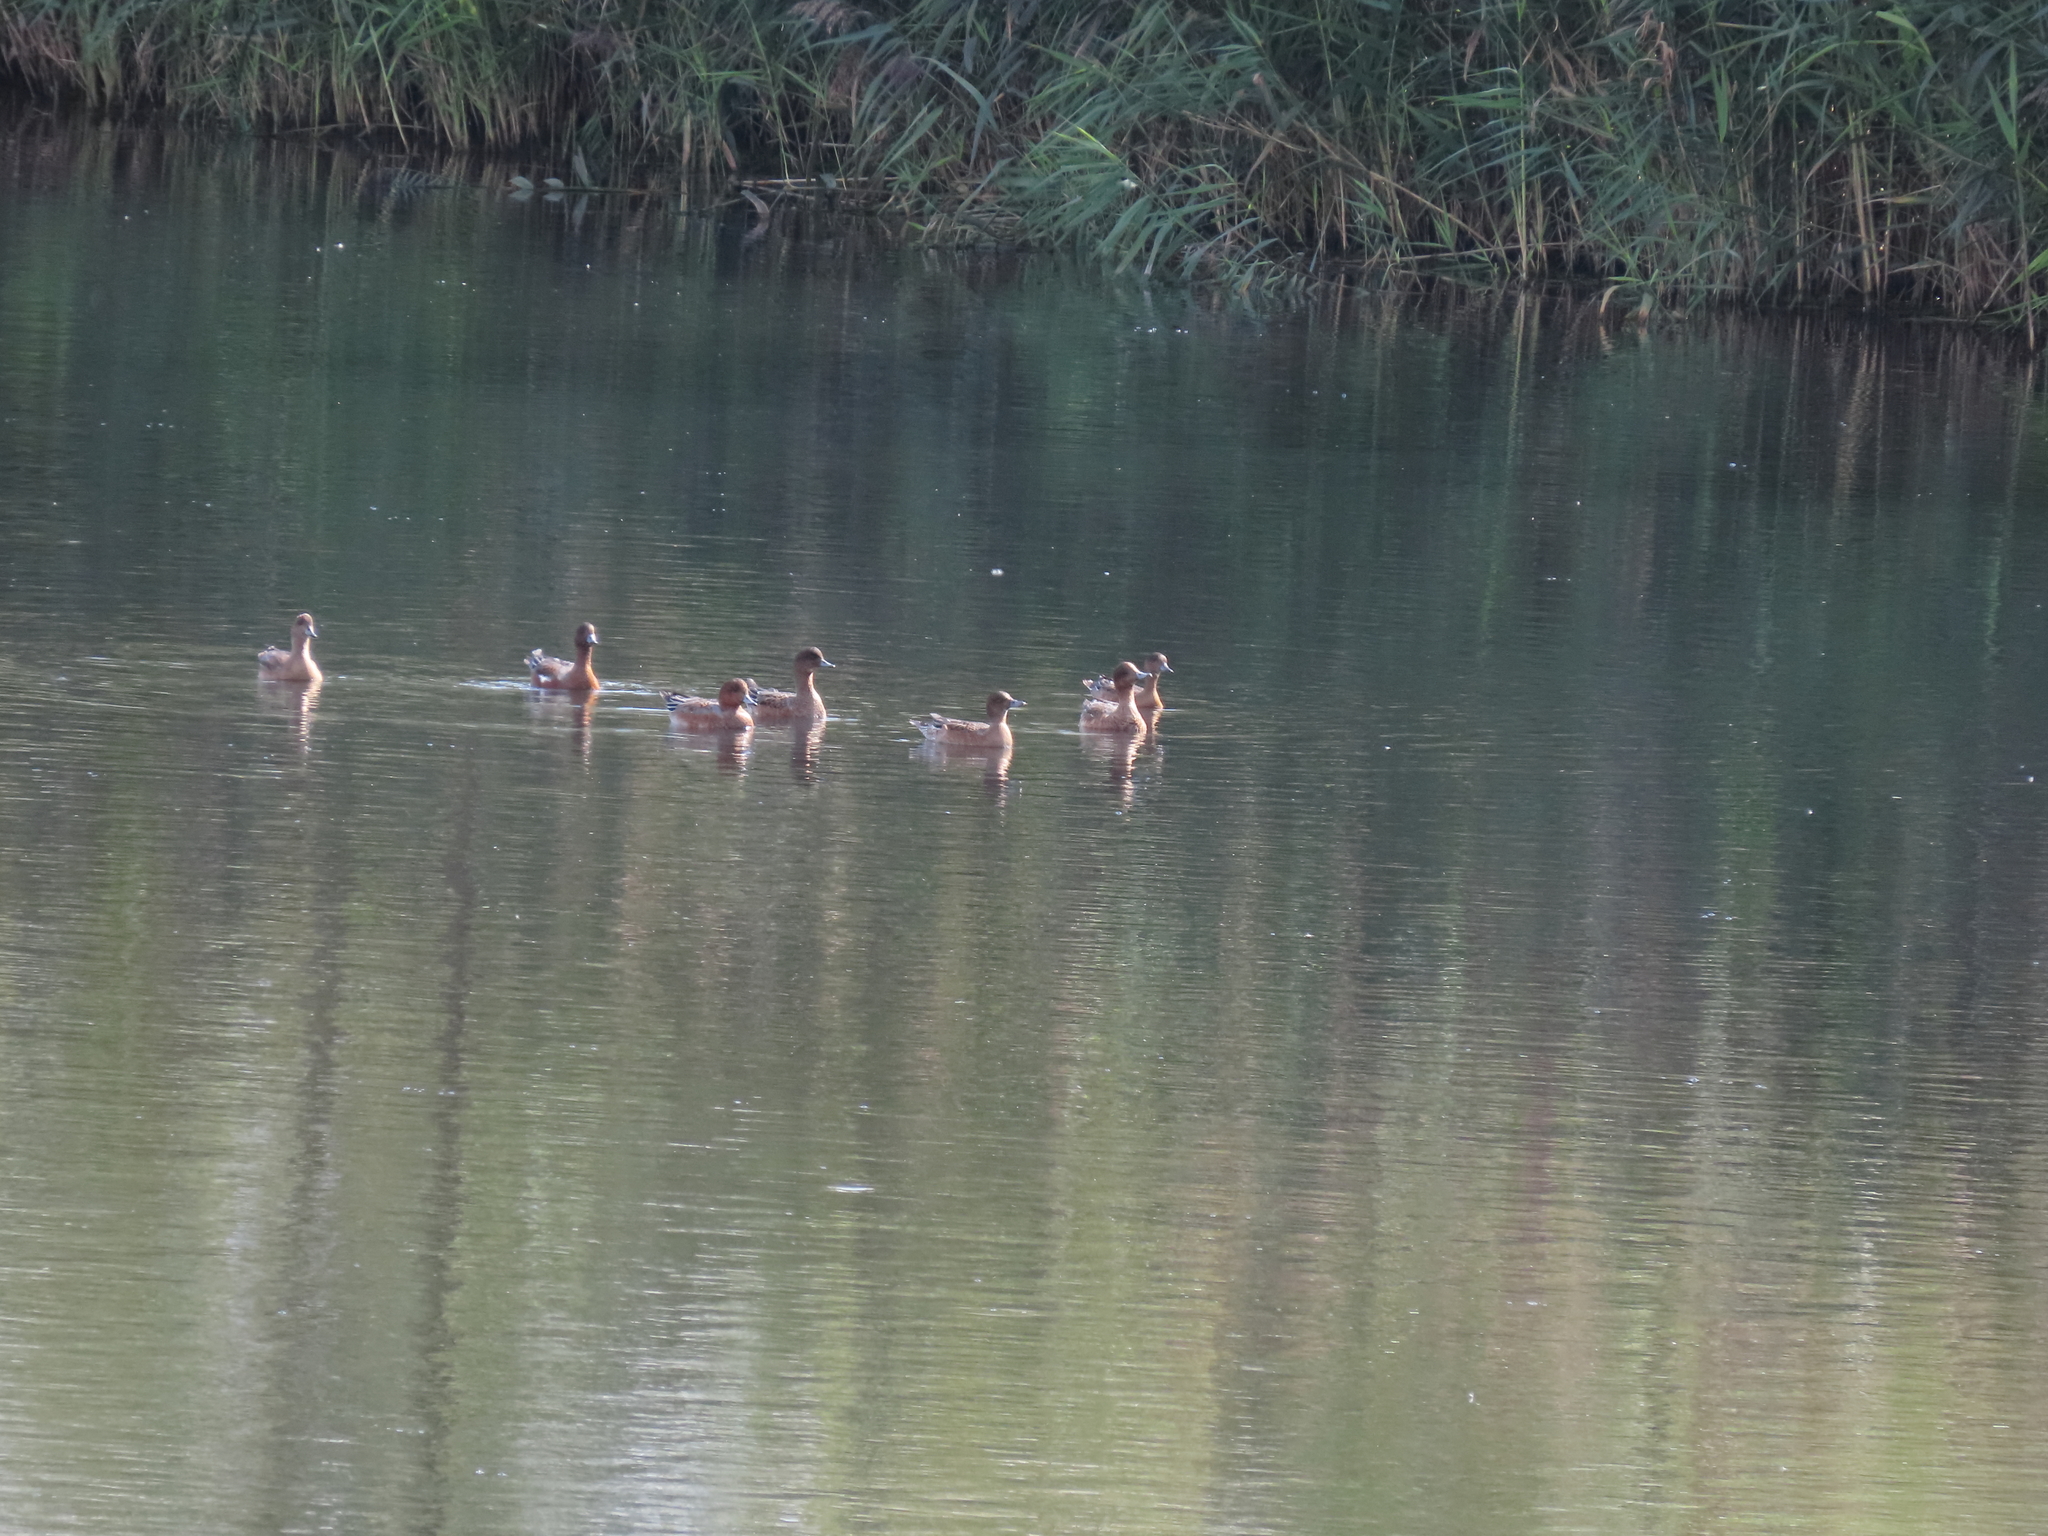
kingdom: Animalia
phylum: Chordata
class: Aves
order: Anseriformes
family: Anatidae
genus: Mareca
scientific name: Mareca penelope
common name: Eurasian wigeon
